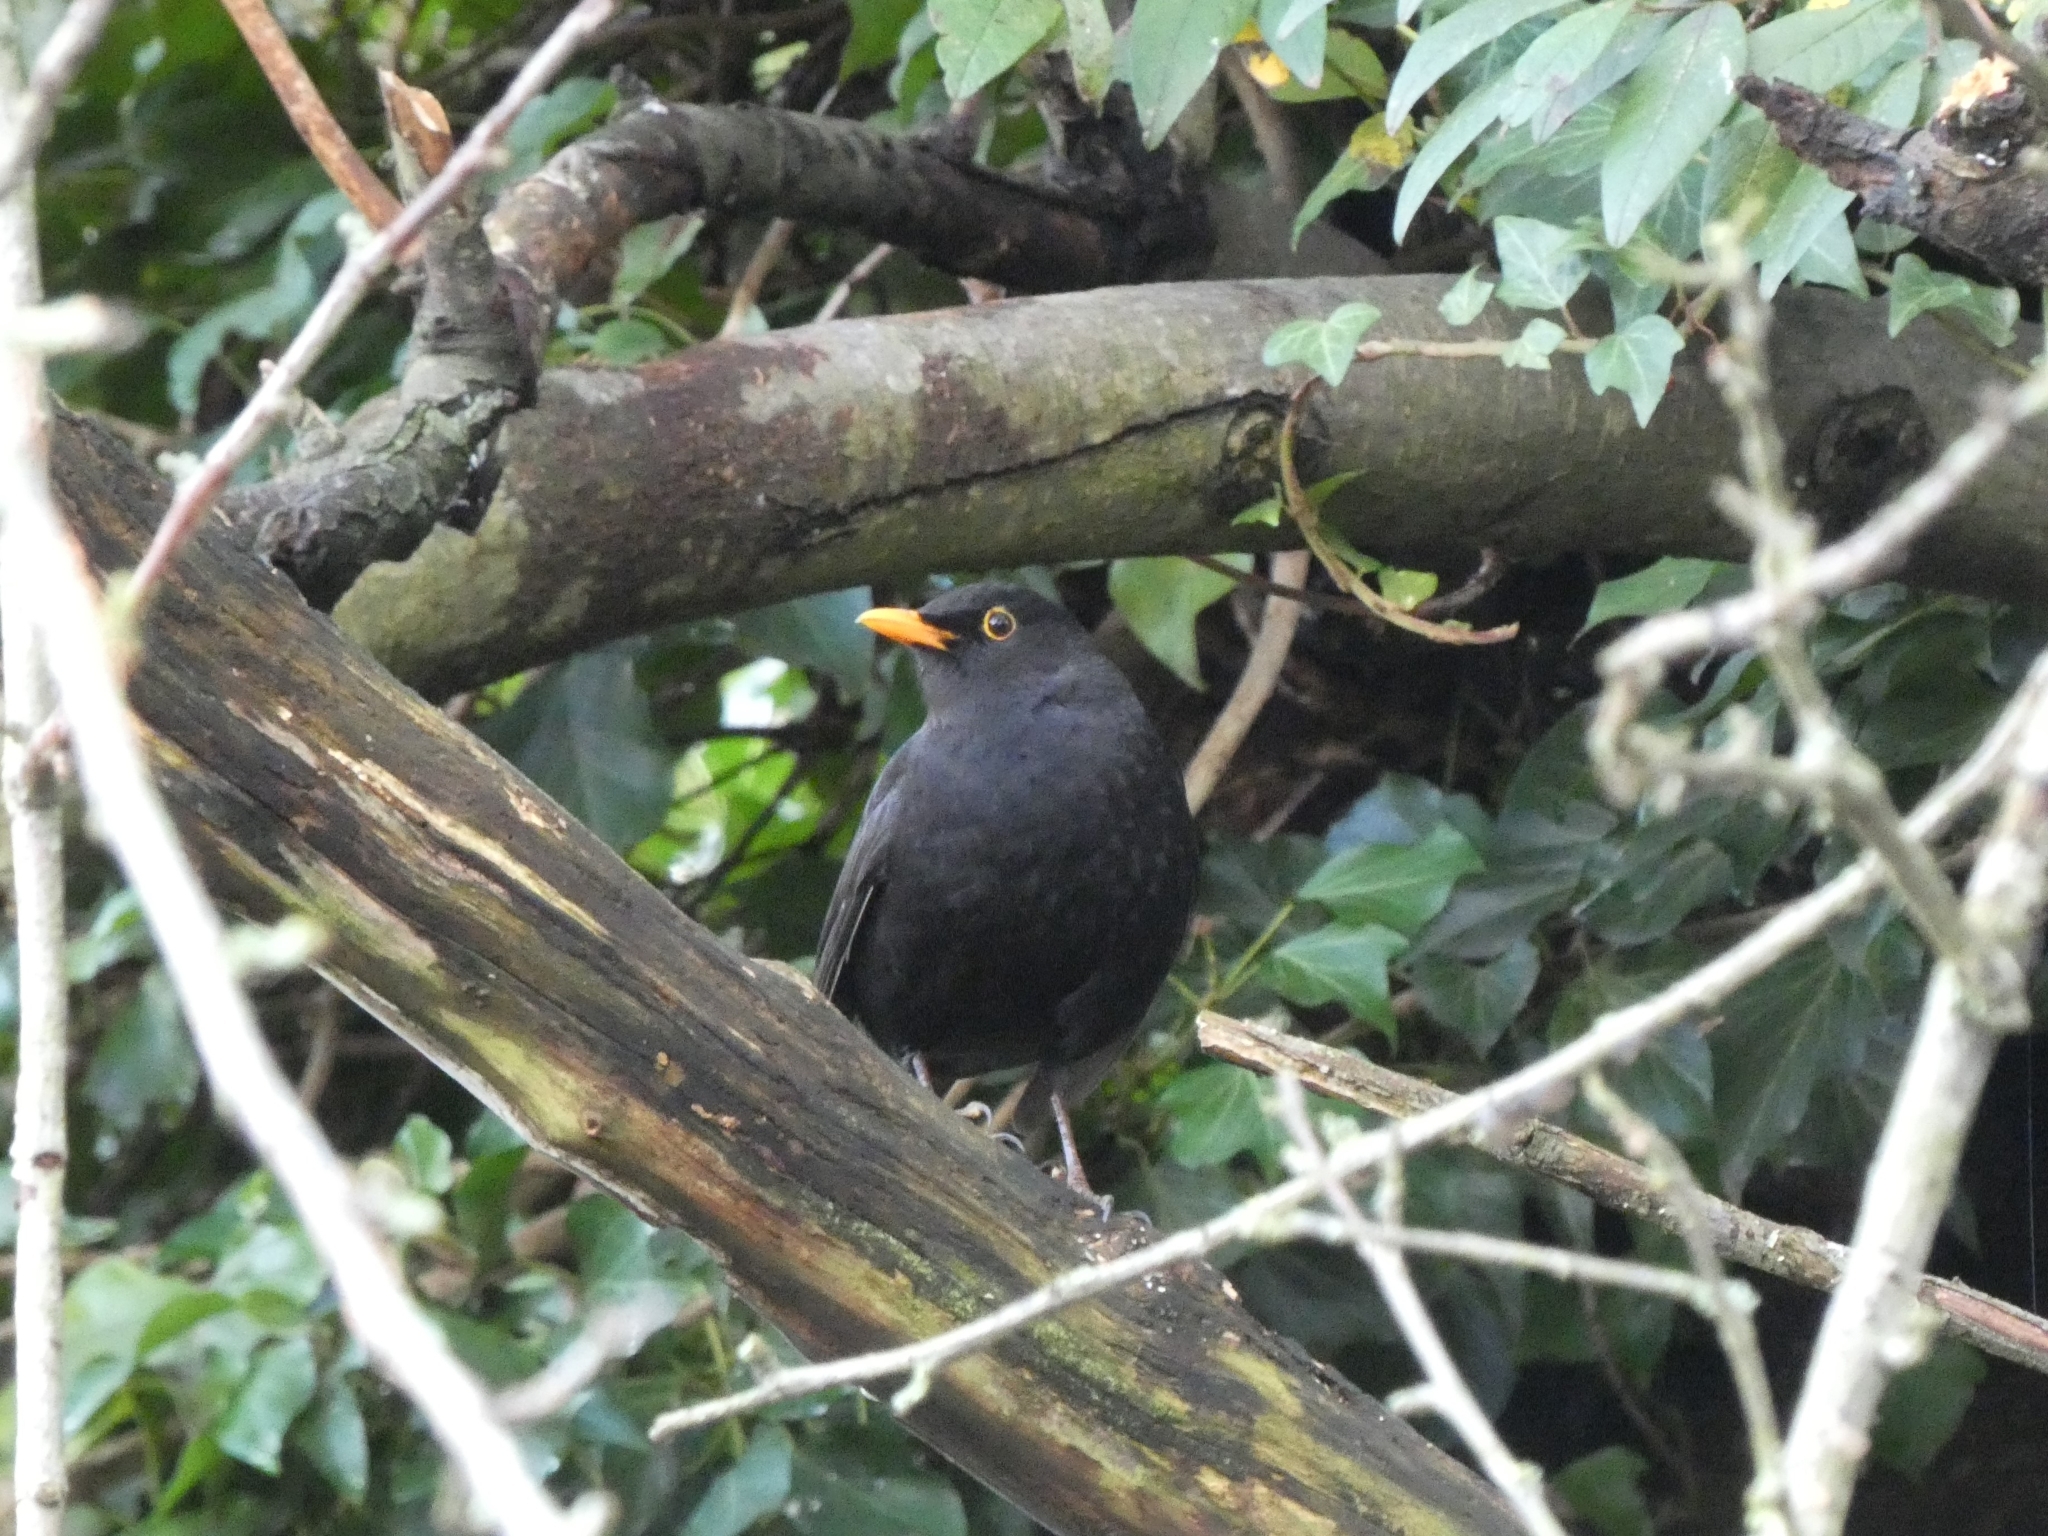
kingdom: Animalia
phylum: Chordata
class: Aves
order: Passeriformes
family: Turdidae
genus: Turdus
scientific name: Turdus merula
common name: Common blackbird
